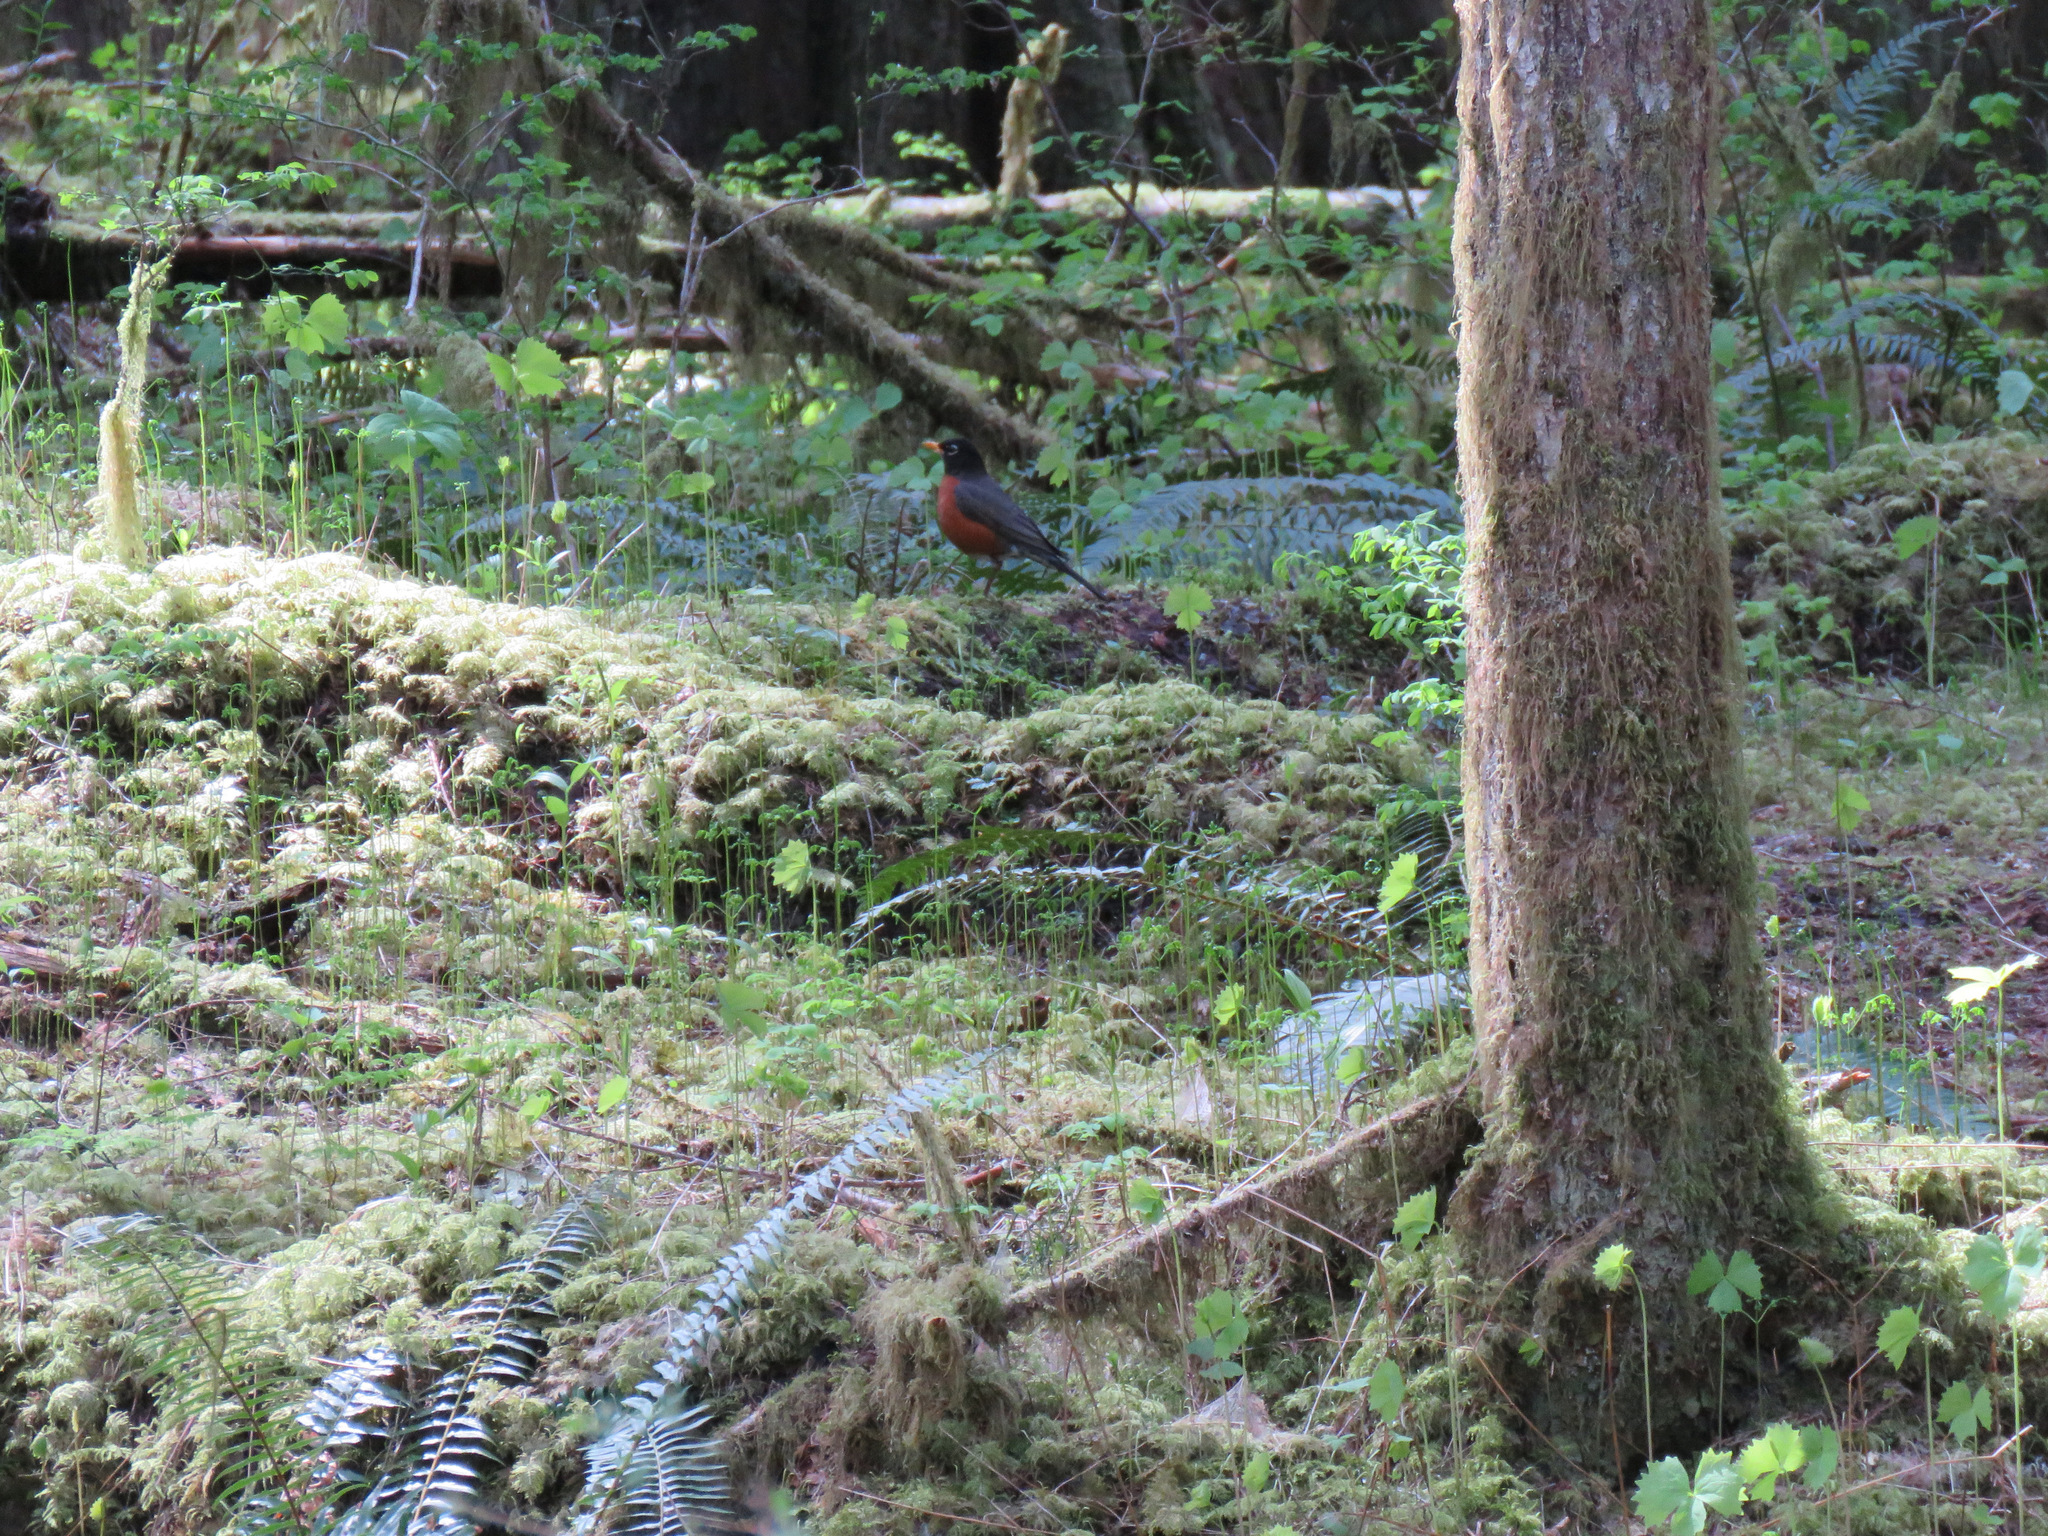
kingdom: Animalia
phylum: Chordata
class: Aves
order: Passeriformes
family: Turdidae
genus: Turdus
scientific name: Turdus migratorius
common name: American robin
